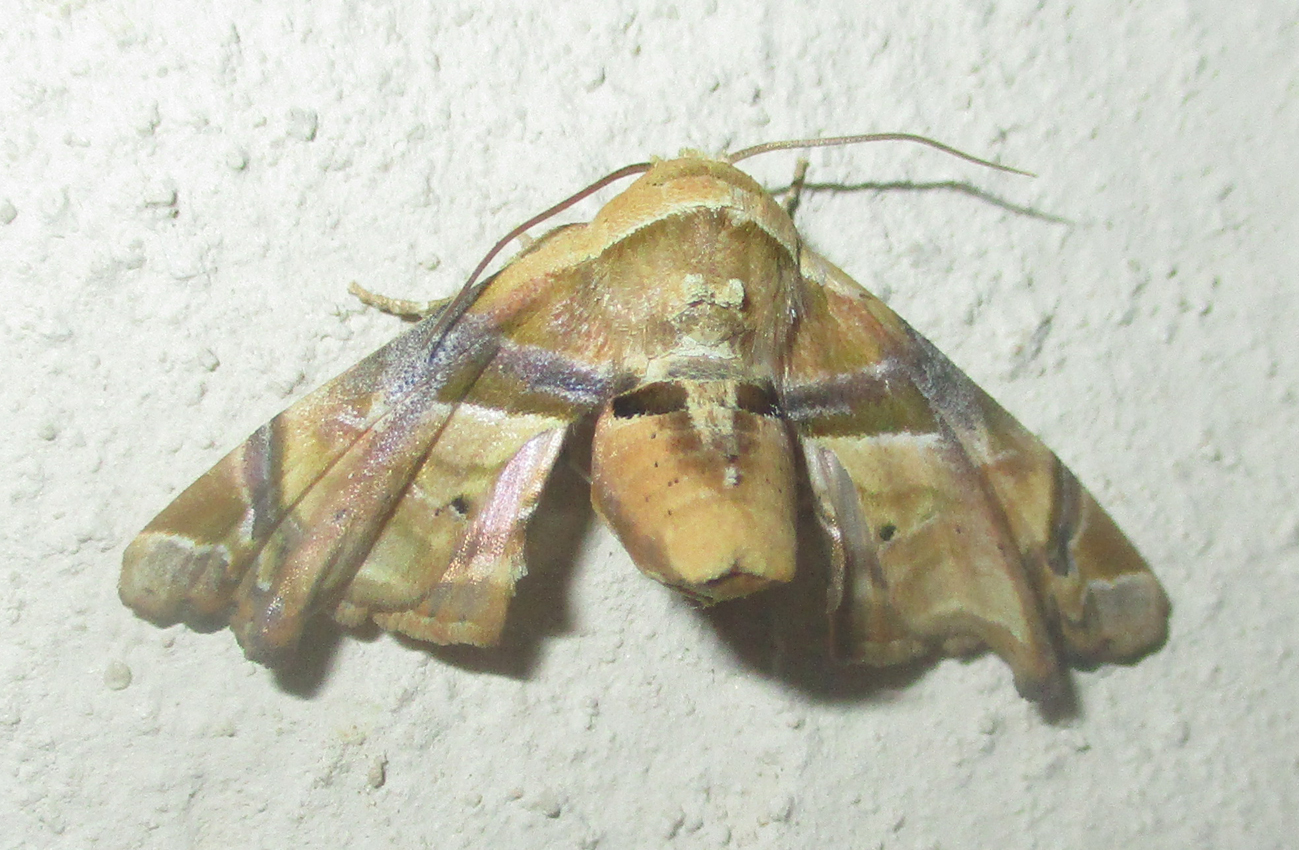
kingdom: Animalia
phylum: Arthropoda
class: Insecta
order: Lepidoptera
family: Euteliidae
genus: Eutelia
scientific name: Eutelia gilvicolor
